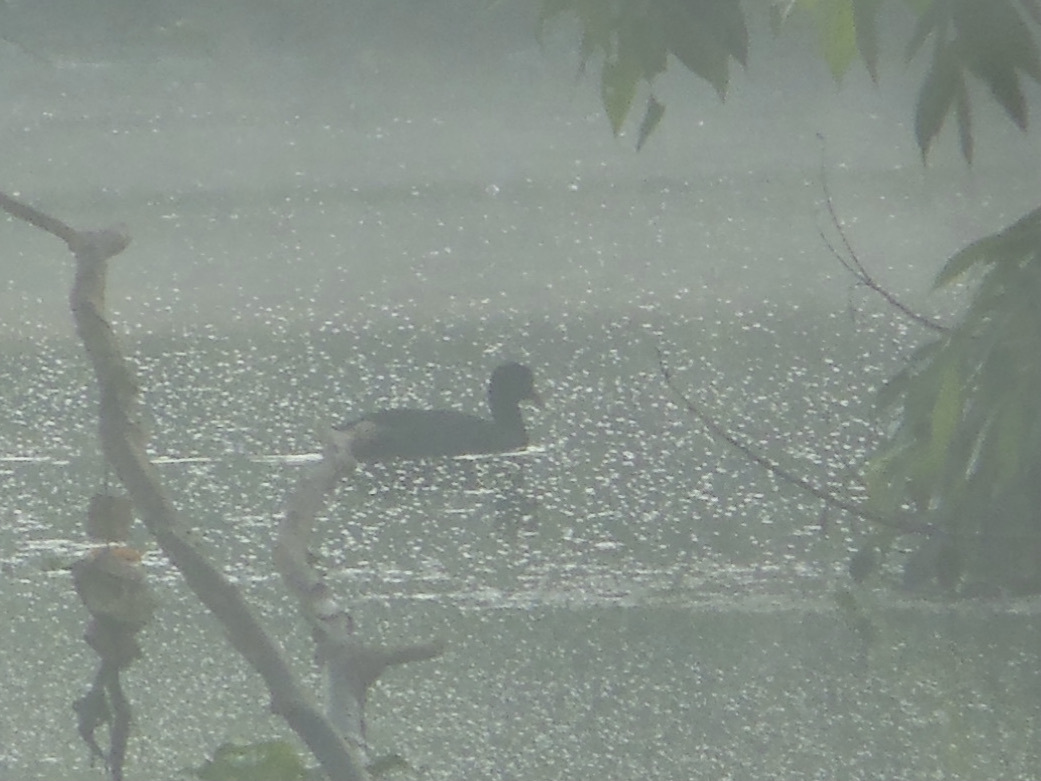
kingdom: Animalia
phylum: Chordata
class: Aves
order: Gruiformes
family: Rallidae
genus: Fulica
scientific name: Fulica atra
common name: Eurasian coot
